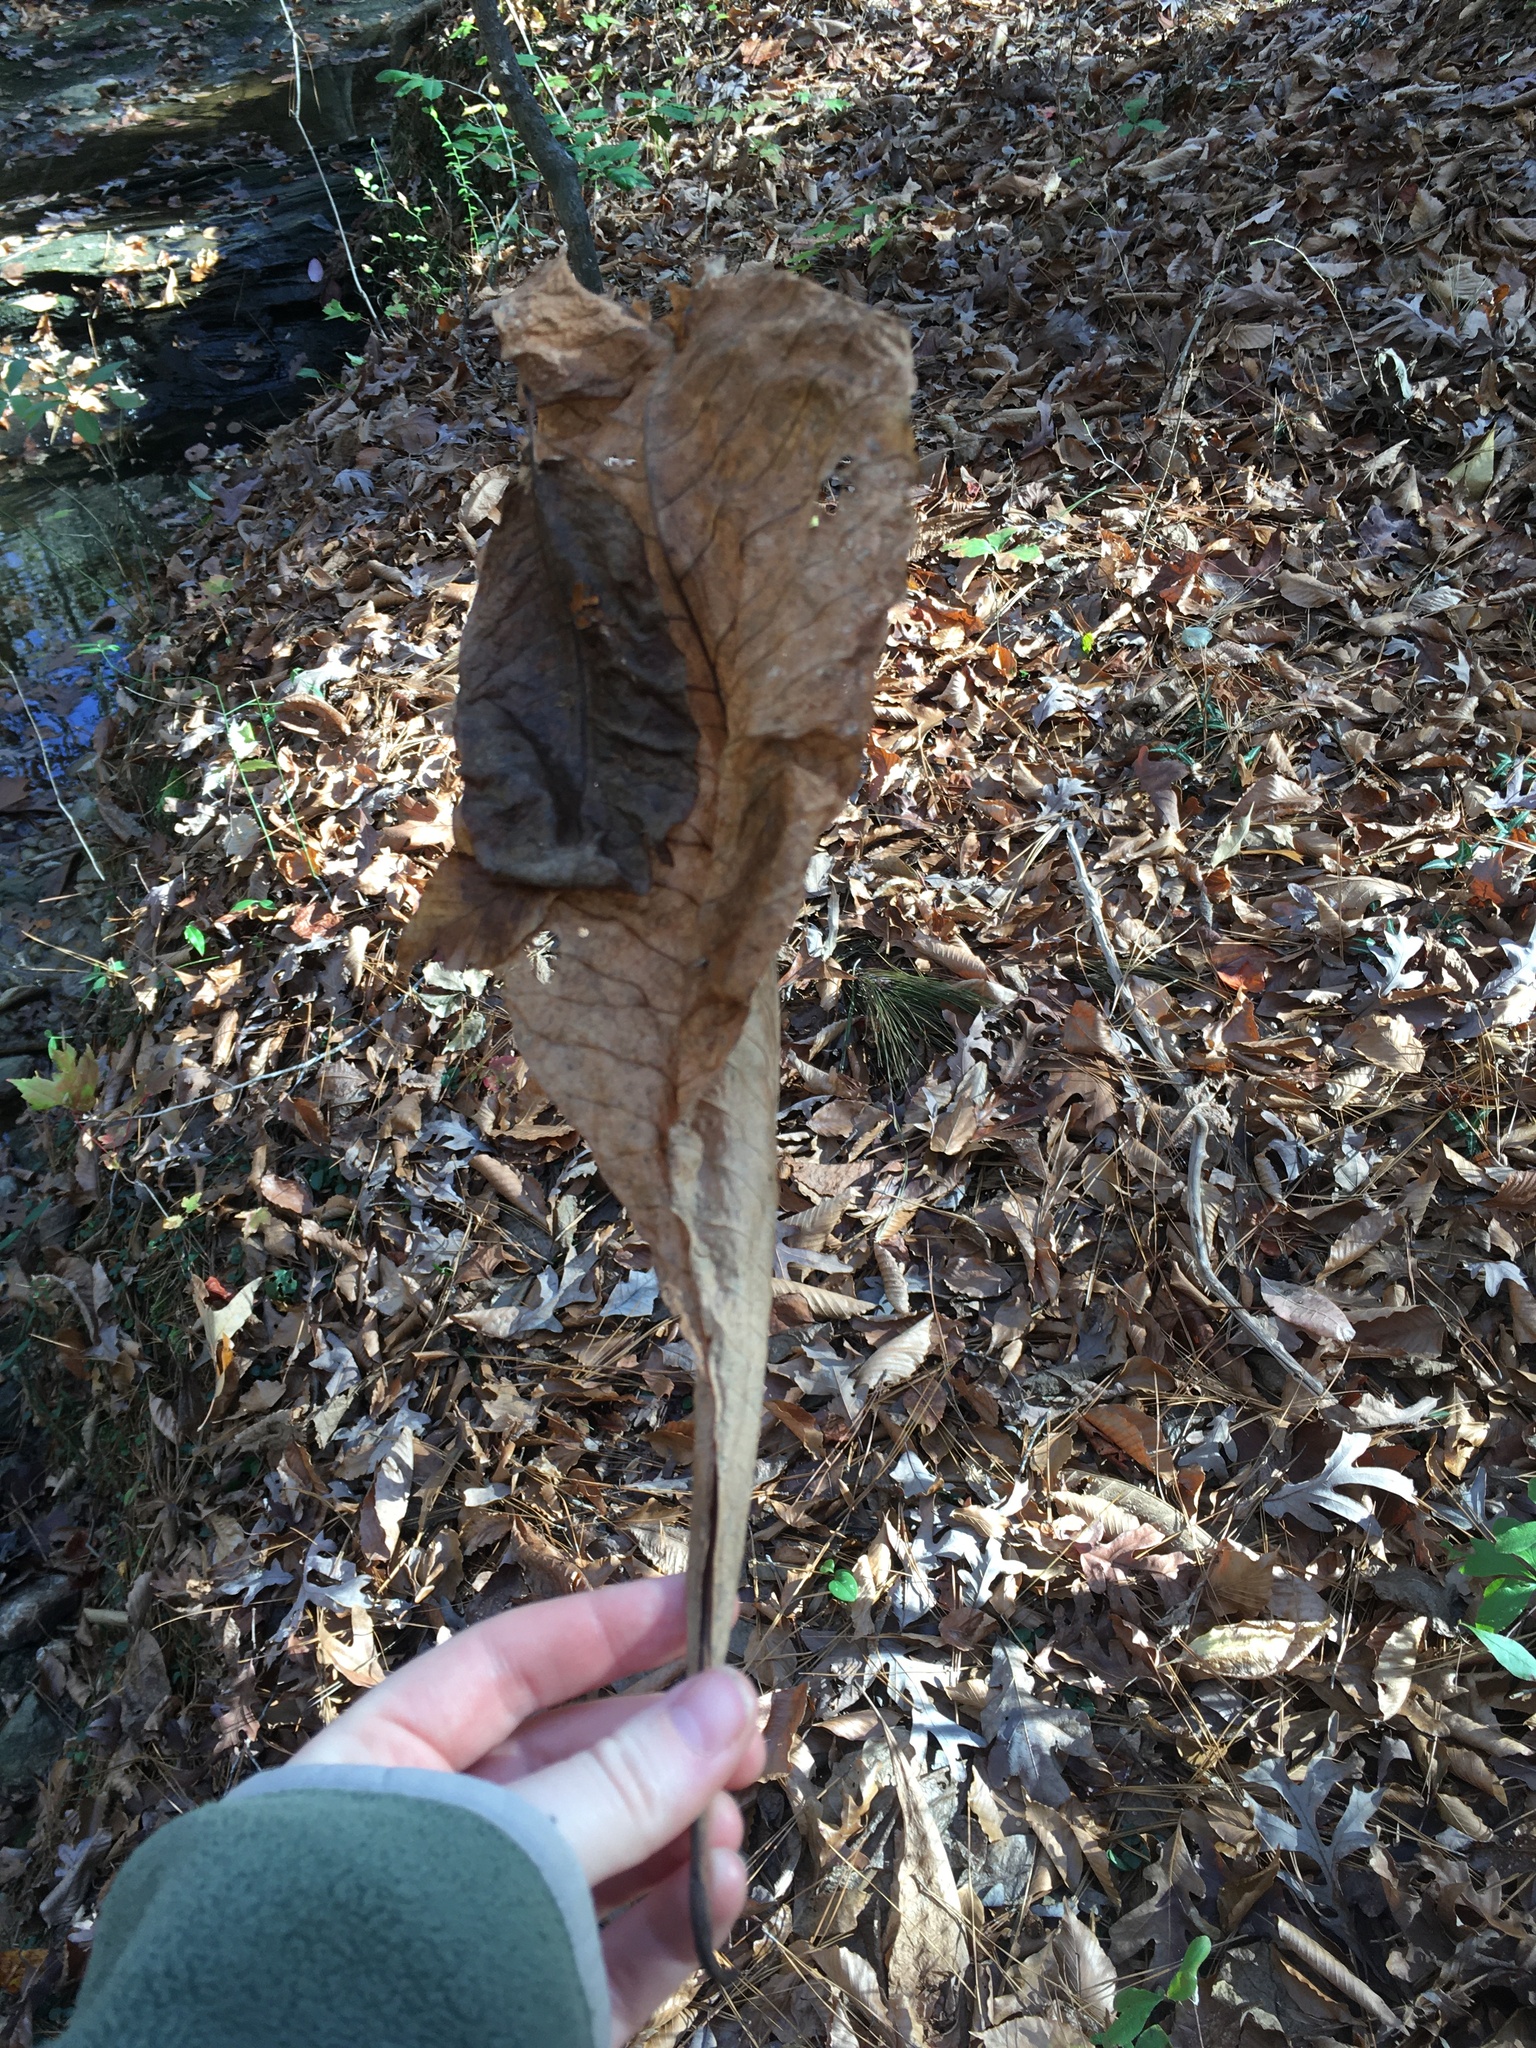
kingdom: Plantae
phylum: Tracheophyta
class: Magnoliopsida
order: Magnoliales
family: Magnoliaceae
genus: Magnolia
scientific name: Magnolia tripetala
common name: Umbrella magnolia
